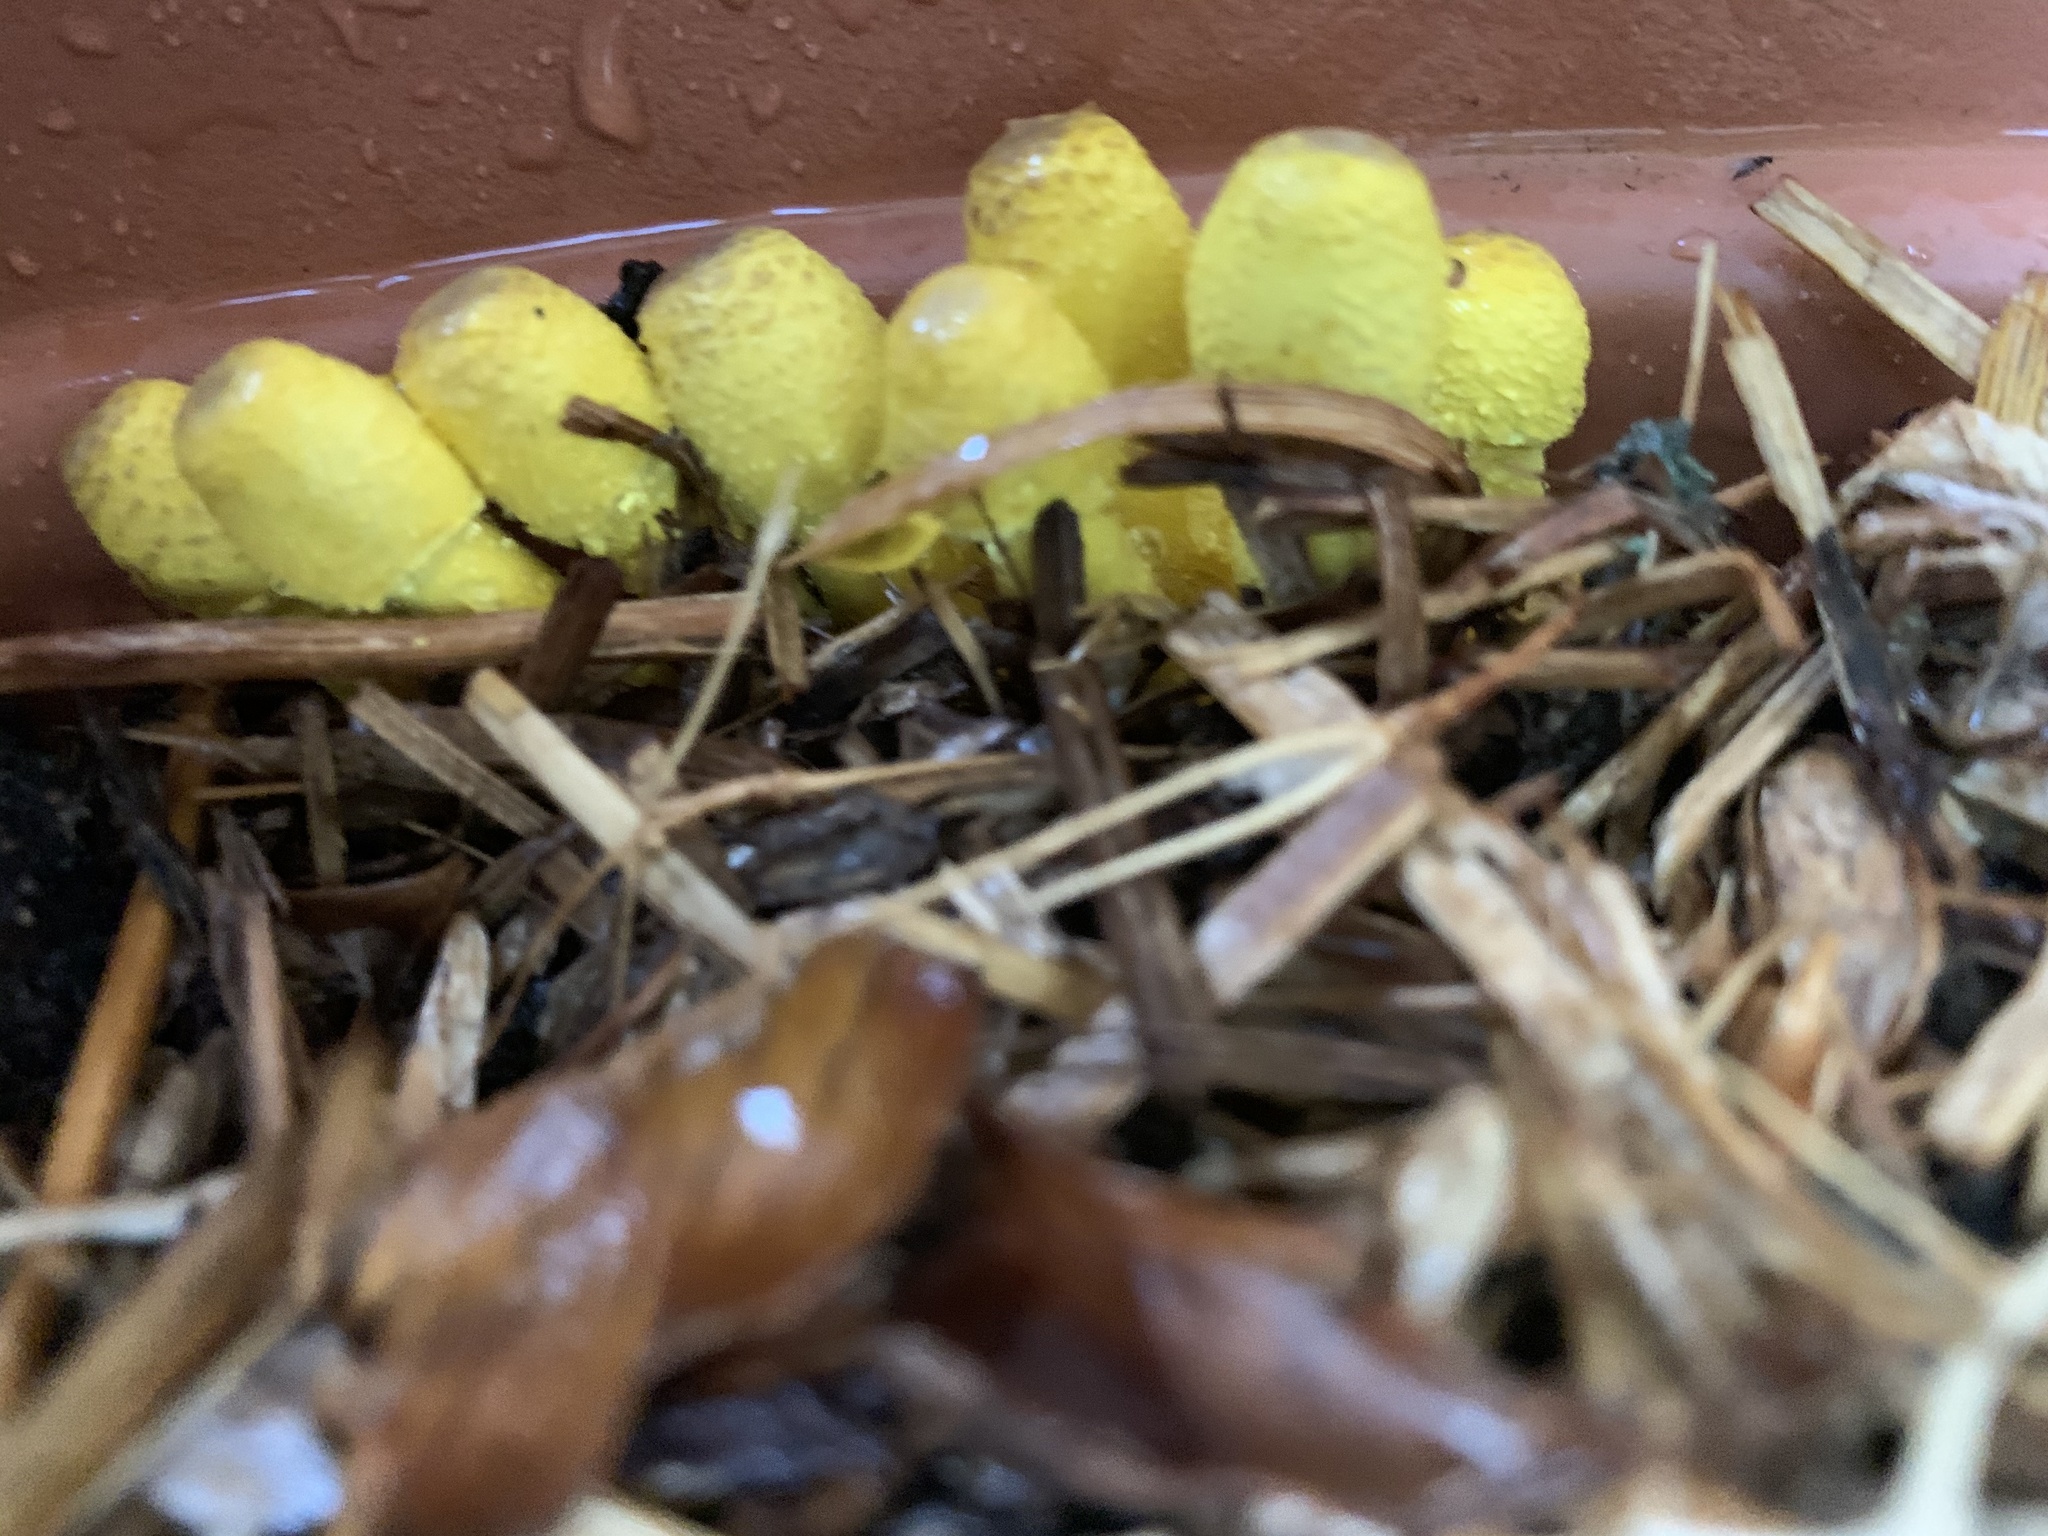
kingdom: Fungi
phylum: Basidiomycota
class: Agaricomycetes
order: Agaricales
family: Agaricaceae
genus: Leucocoprinus
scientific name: Leucocoprinus birnbaumii
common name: Plantpot dapperling
